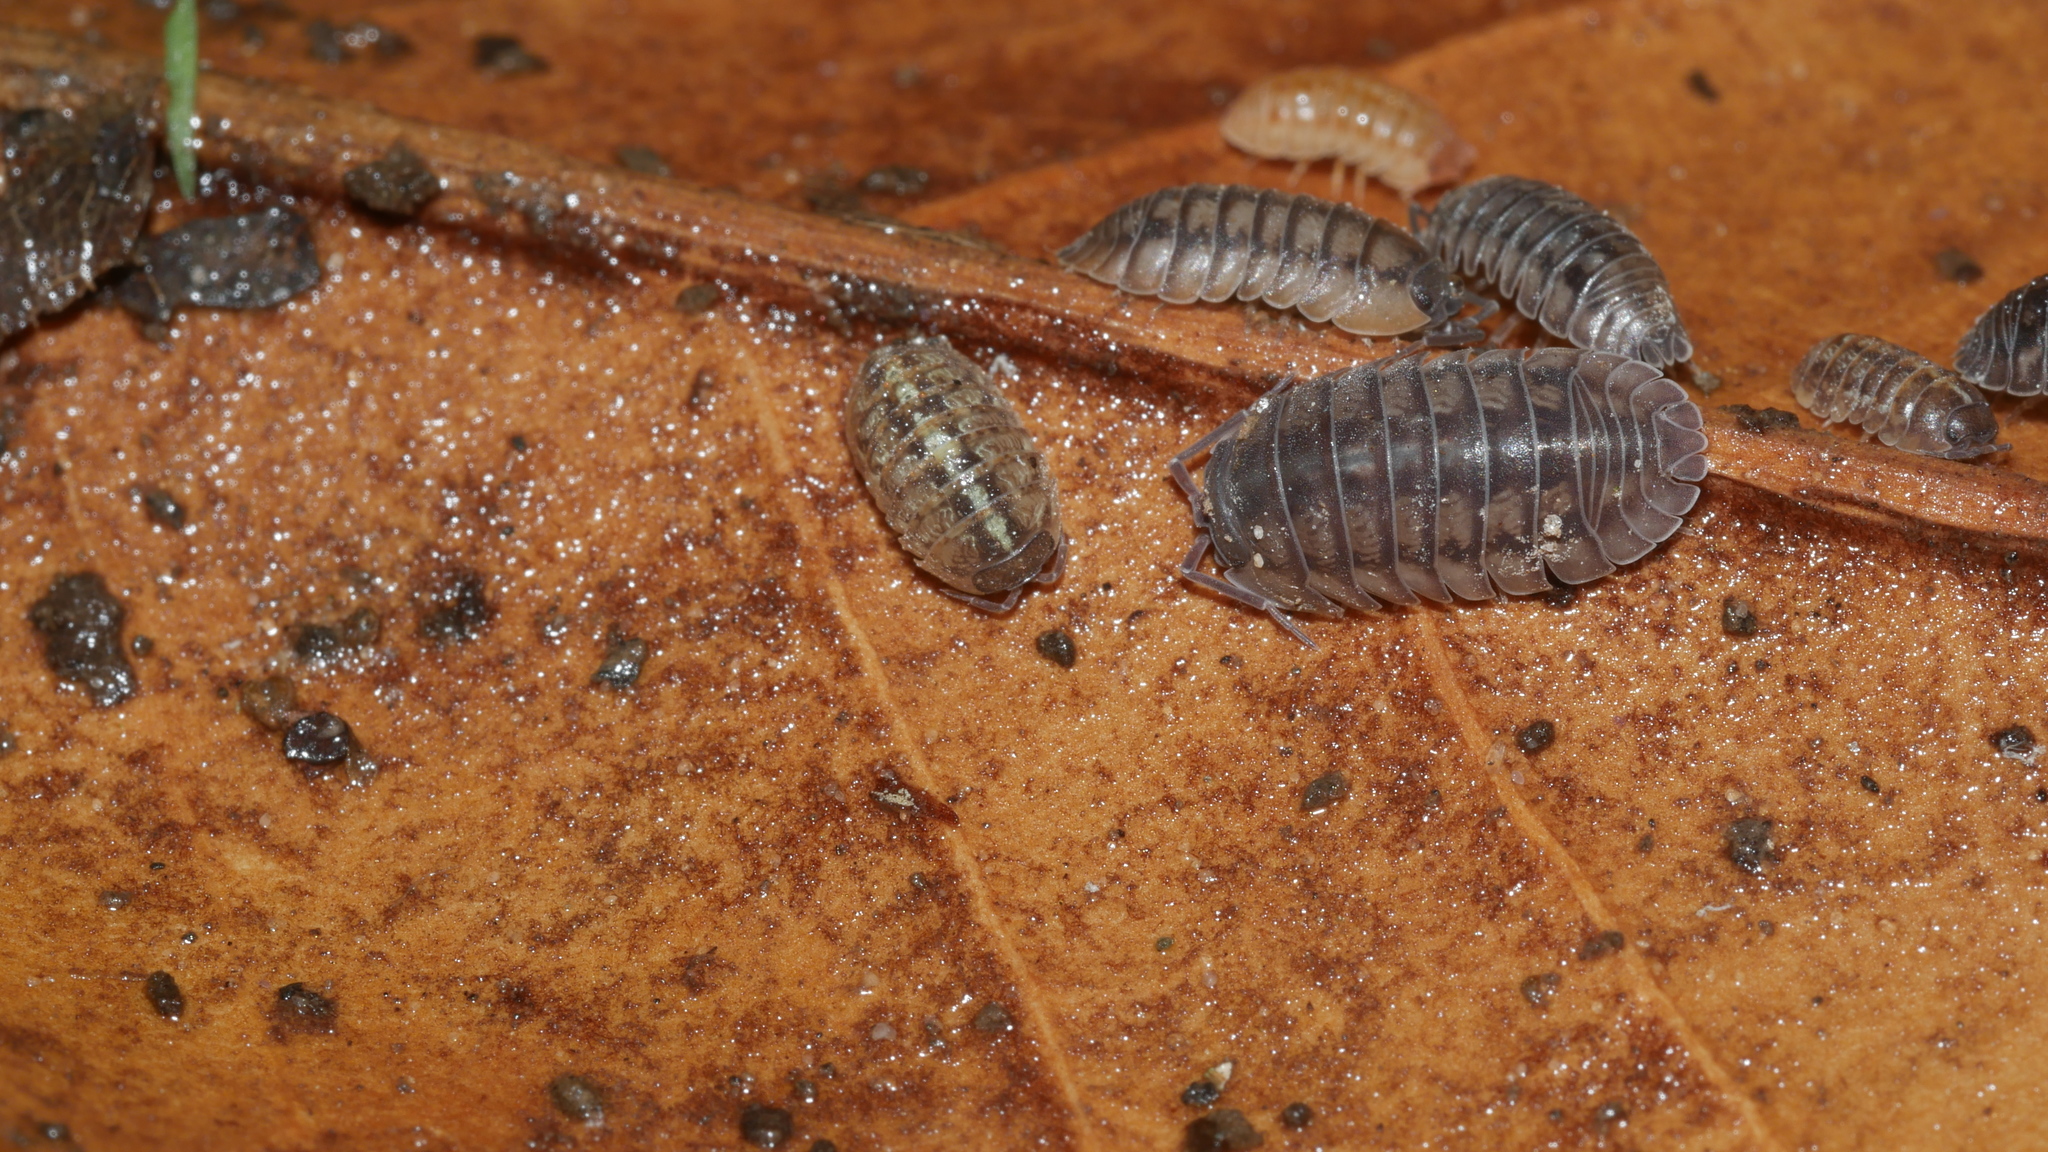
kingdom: Animalia
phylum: Arthropoda
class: Malacostraca
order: Isopoda
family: Armadillidiidae
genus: Armadillidium
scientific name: Armadillidium vulgare
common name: Common pill woodlouse
